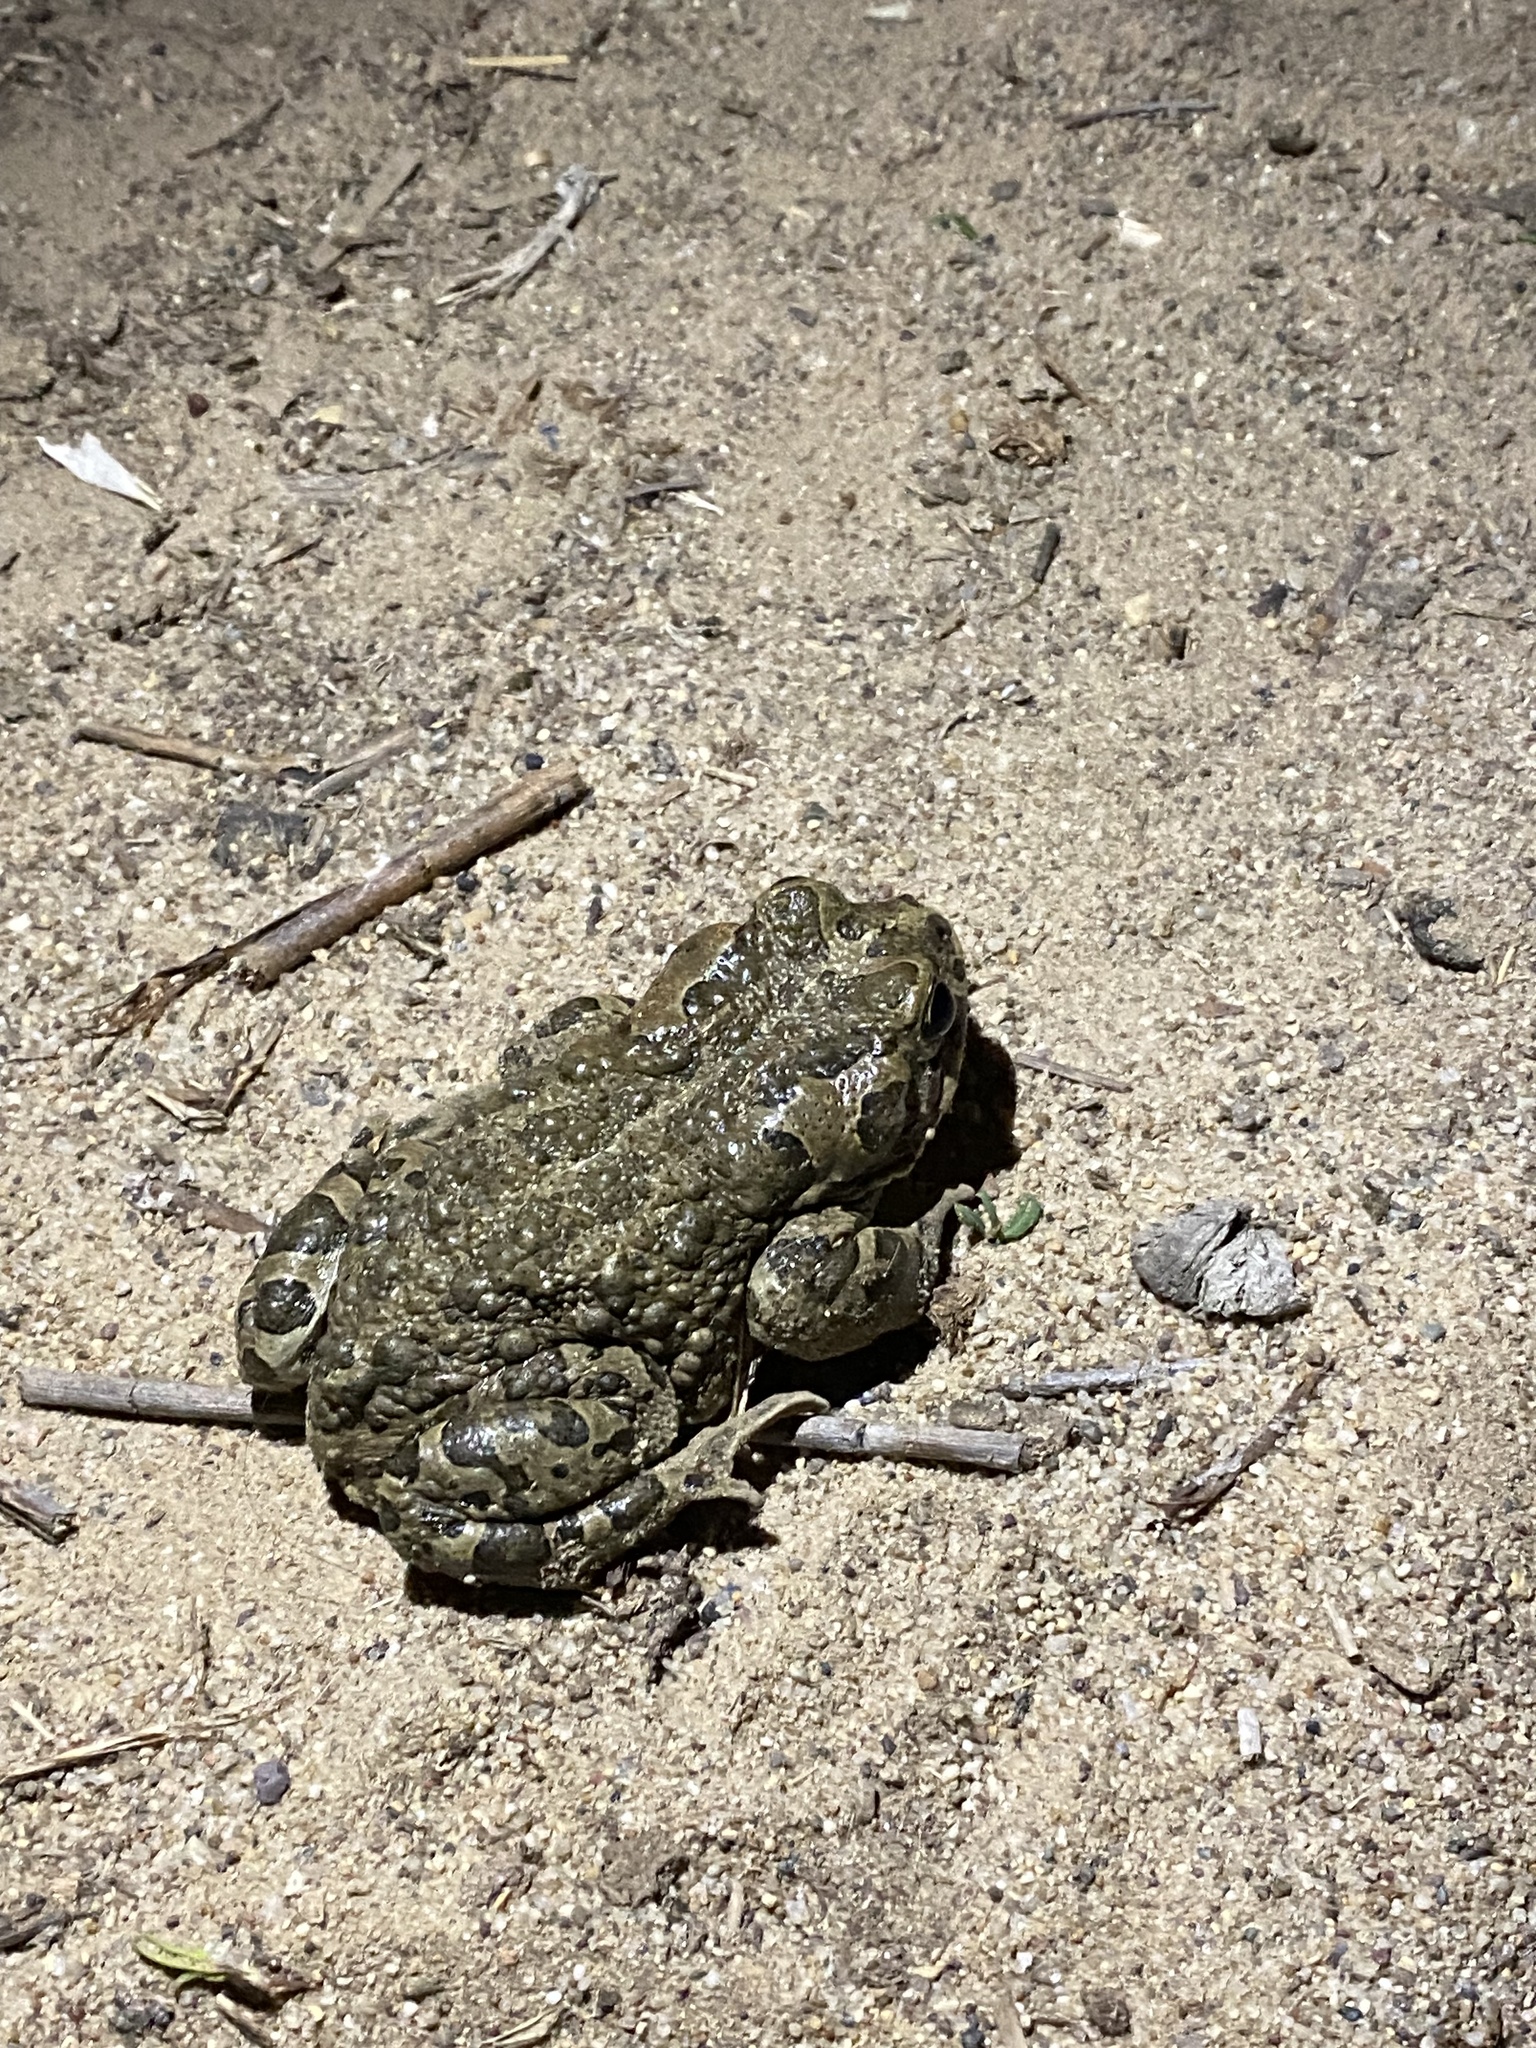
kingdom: Animalia
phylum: Chordata
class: Amphibia
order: Anura
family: Bufonidae
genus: Bufotes
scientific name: Bufotes viridis
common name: European green toad
